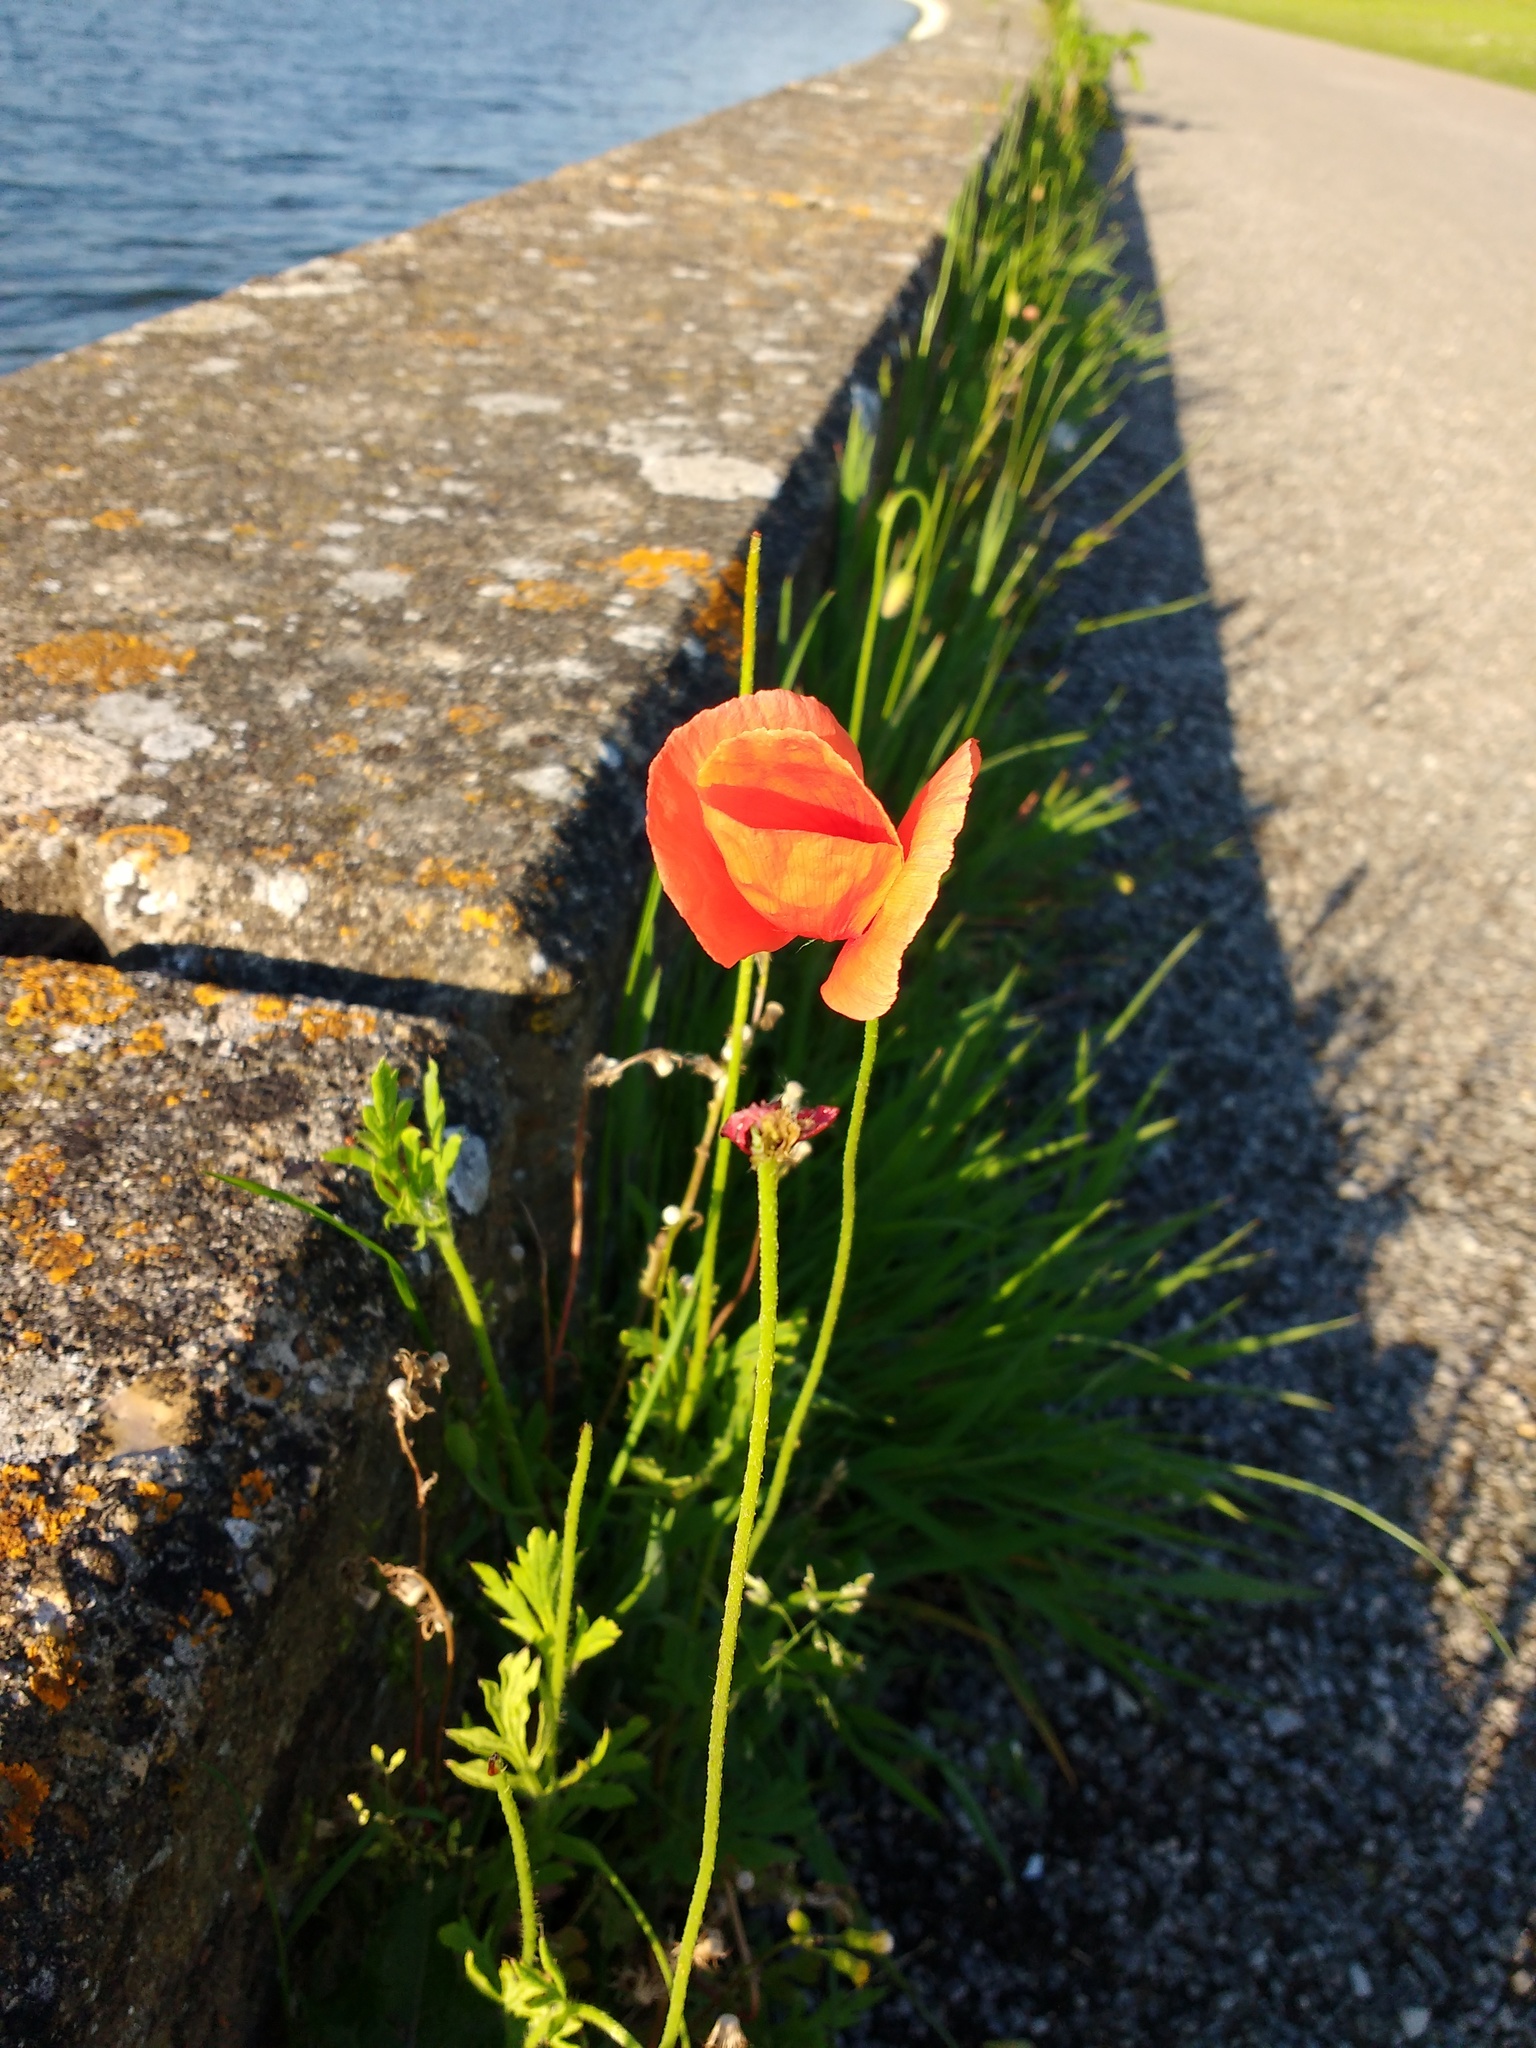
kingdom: Plantae
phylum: Tracheophyta
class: Magnoliopsida
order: Ranunculales
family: Papaveraceae
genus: Papaver
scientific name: Papaver dubium
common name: Long-headed poppy
